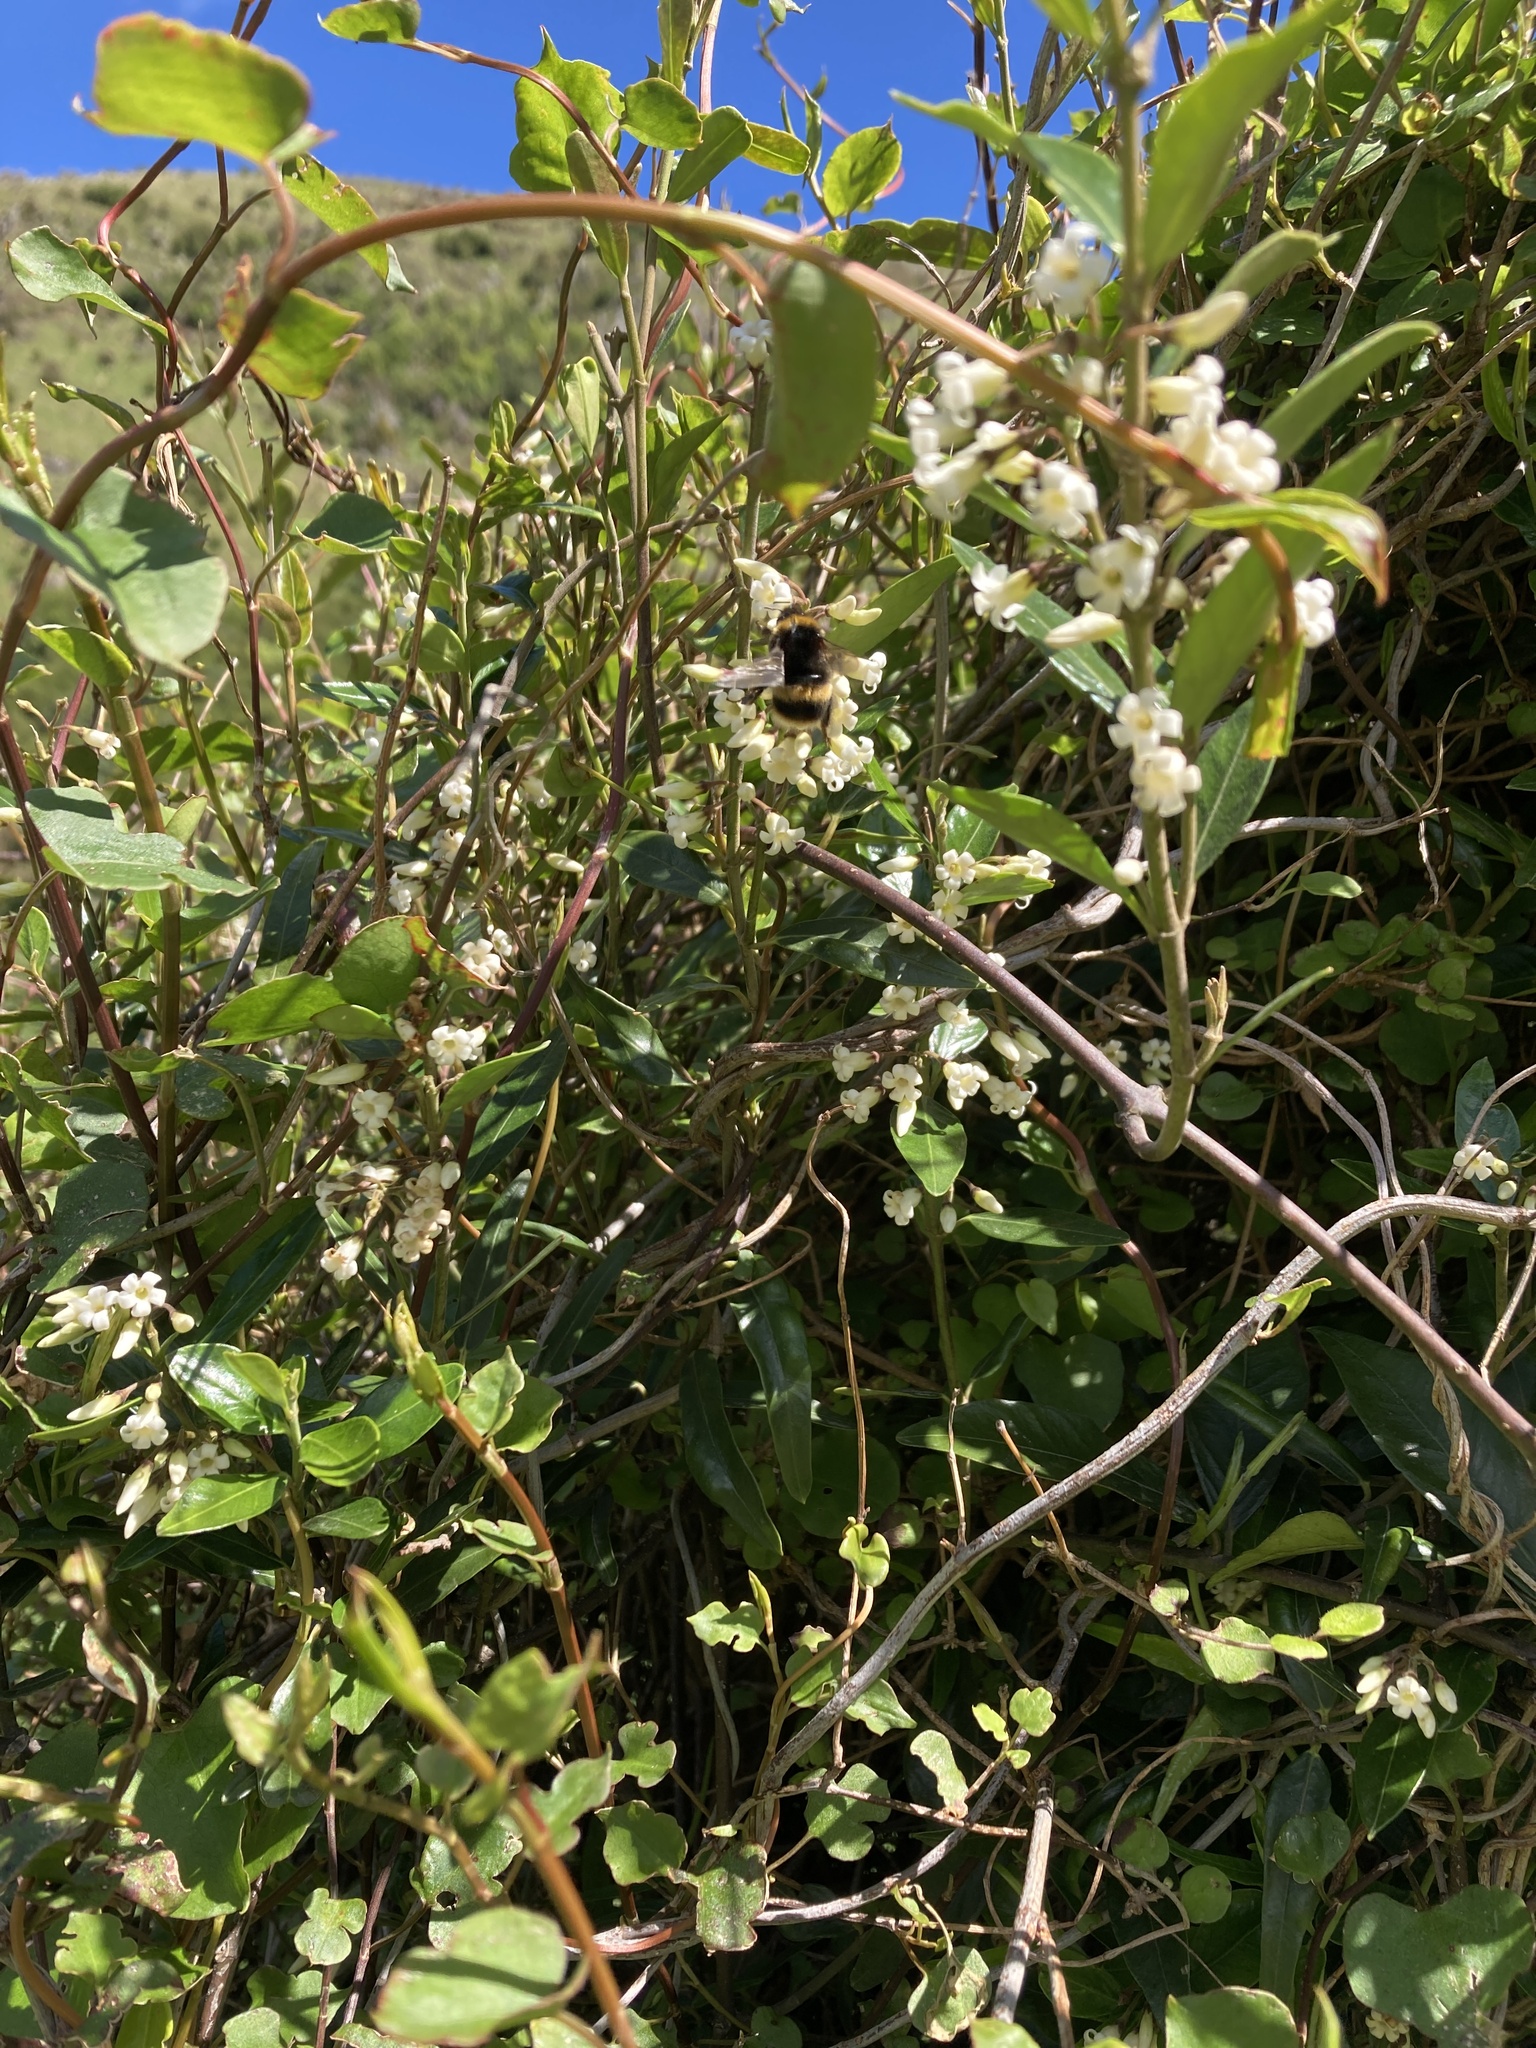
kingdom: Animalia
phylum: Arthropoda
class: Insecta
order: Hymenoptera
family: Apidae
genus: Bombus
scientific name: Bombus terrestris
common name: Buff-tailed bumblebee
